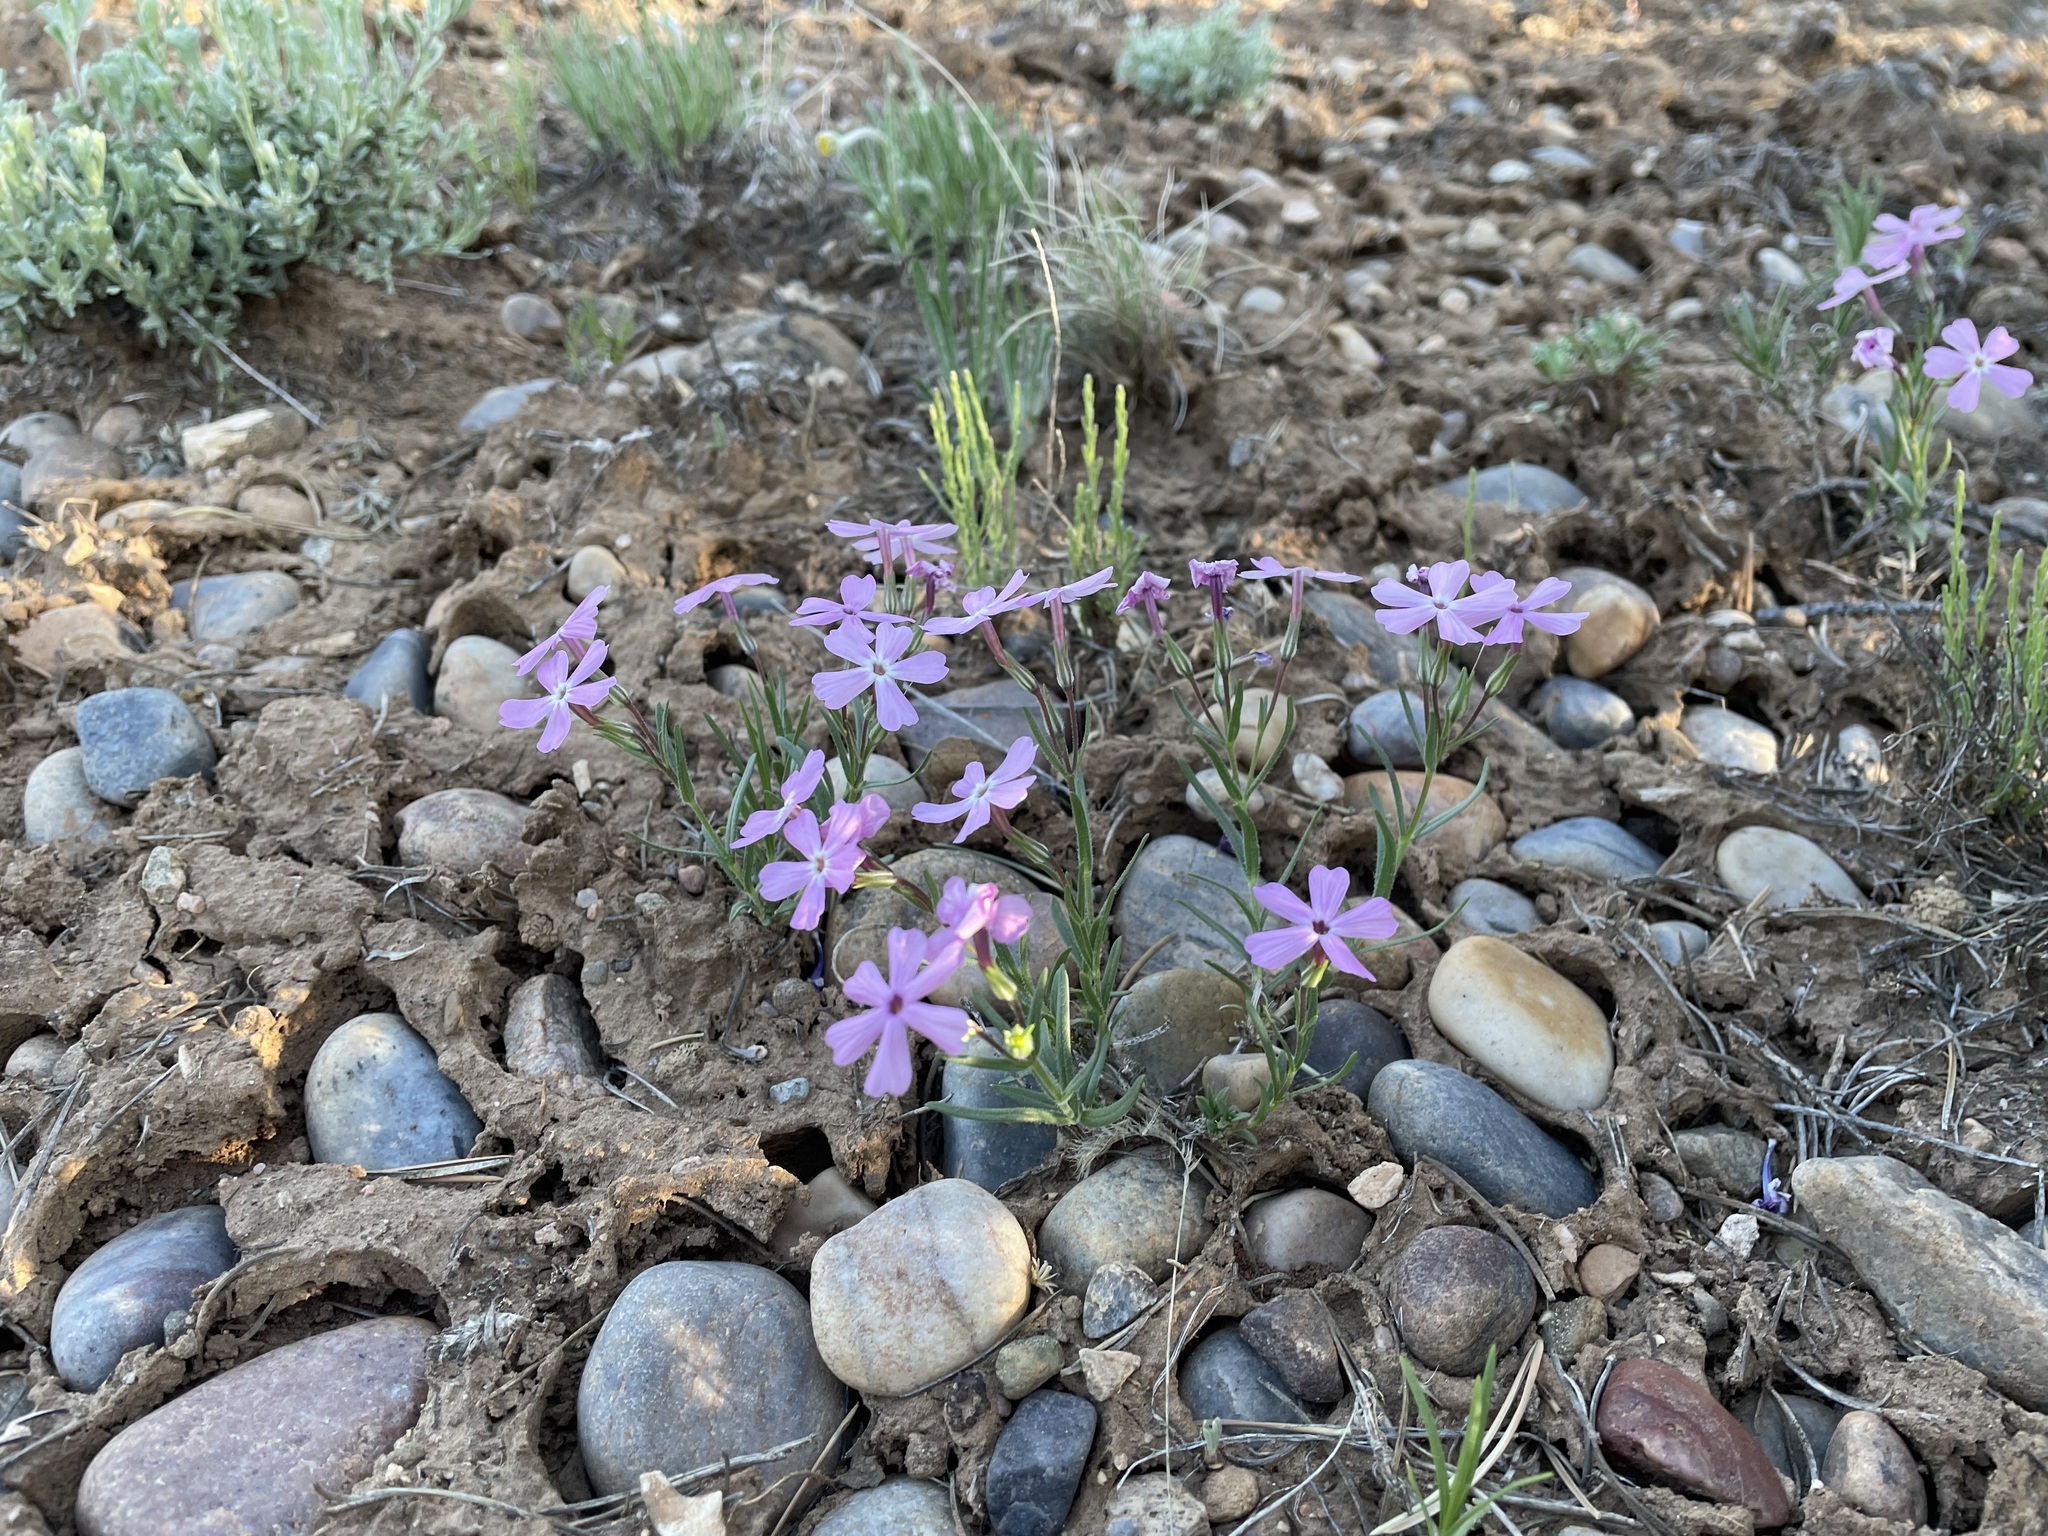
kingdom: Plantae
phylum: Tracheophyta
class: Magnoliopsida
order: Ericales
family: Polemoniaceae
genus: Phlox
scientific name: Phlox longifolia
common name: Longleaf phlox
